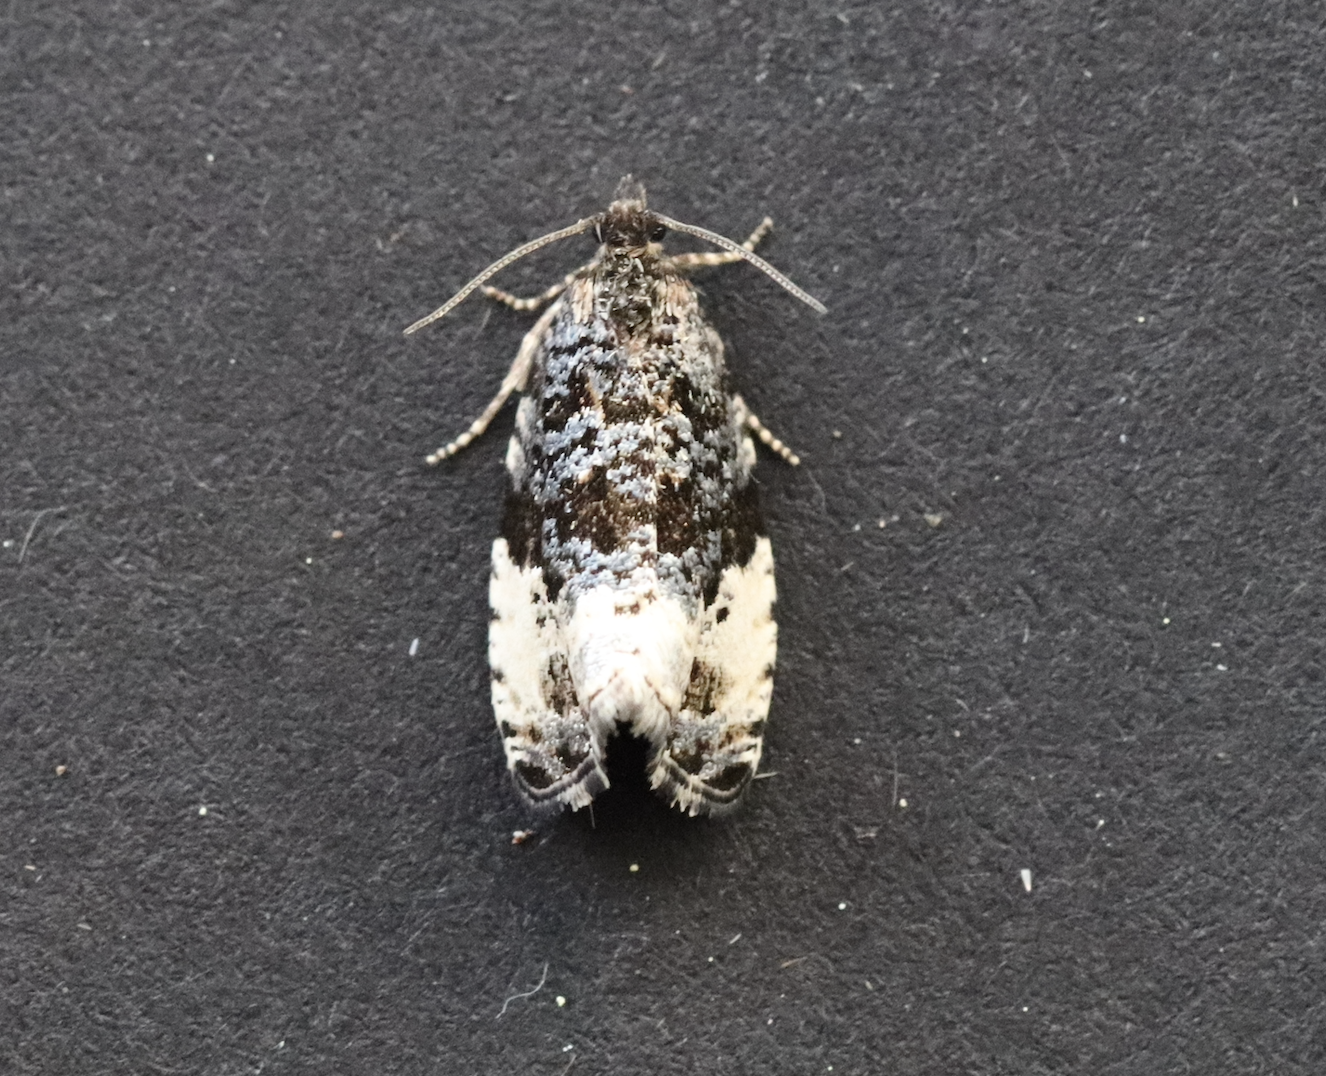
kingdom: Animalia
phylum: Arthropoda
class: Insecta
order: Lepidoptera
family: Tortricidae
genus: Hedya
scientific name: Hedya pruniana
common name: Plum tortrix
